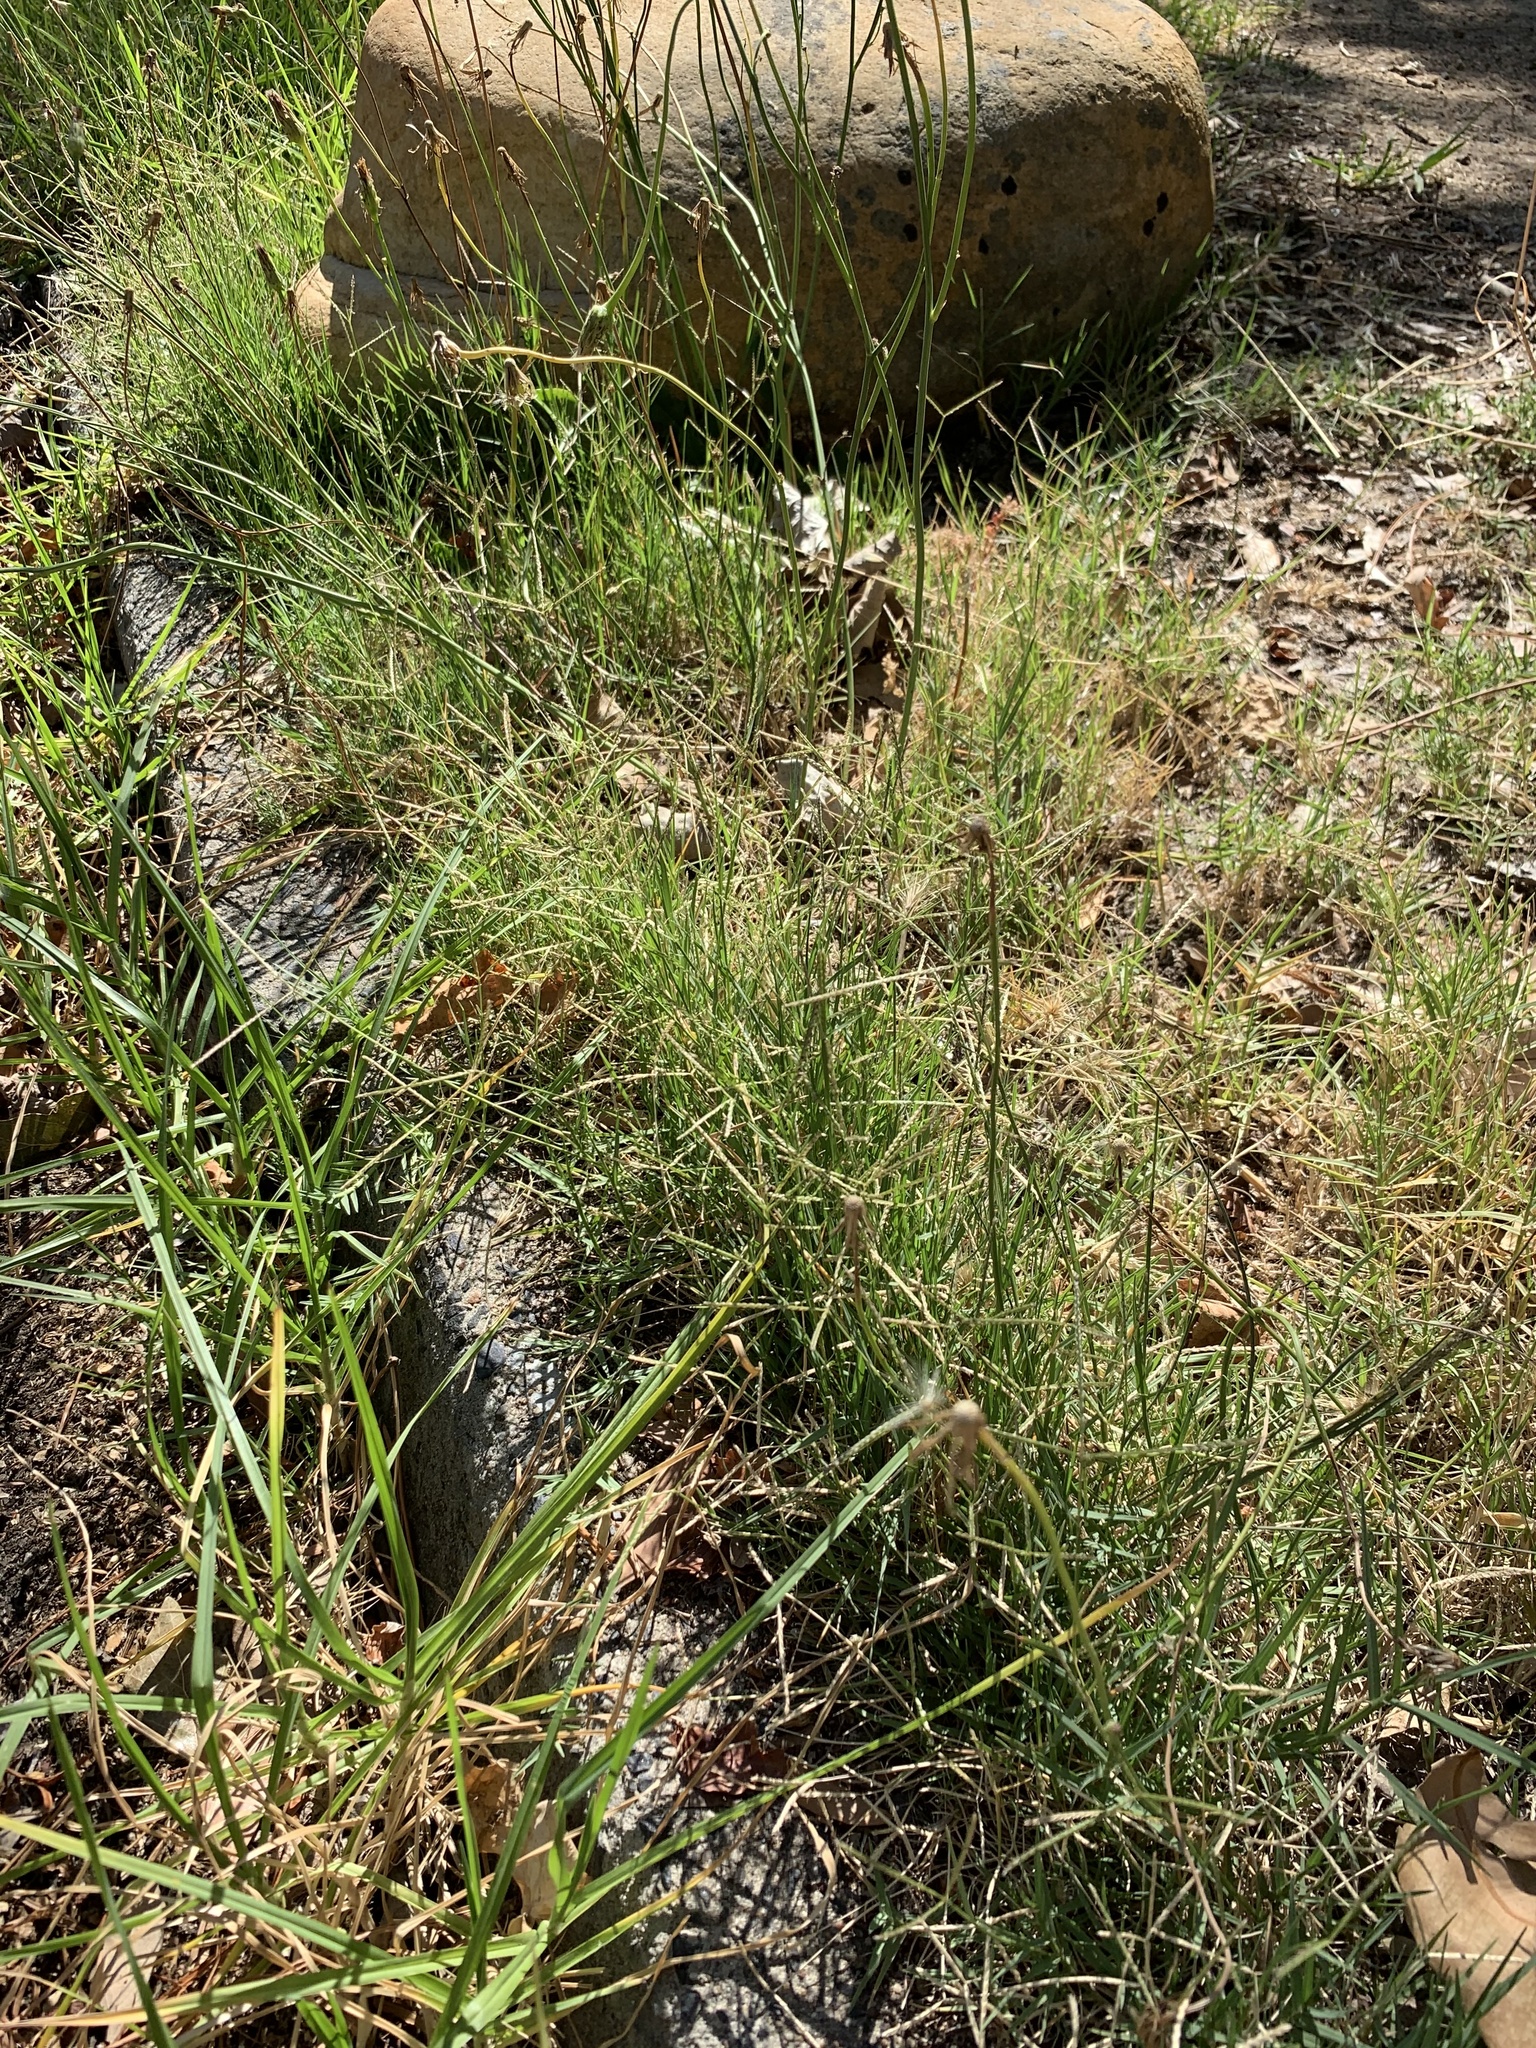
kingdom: Plantae
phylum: Tracheophyta
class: Liliopsida
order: Poales
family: Poaceae
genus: Cynodon
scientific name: Cynodon dactylon
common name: Bermuda grass
